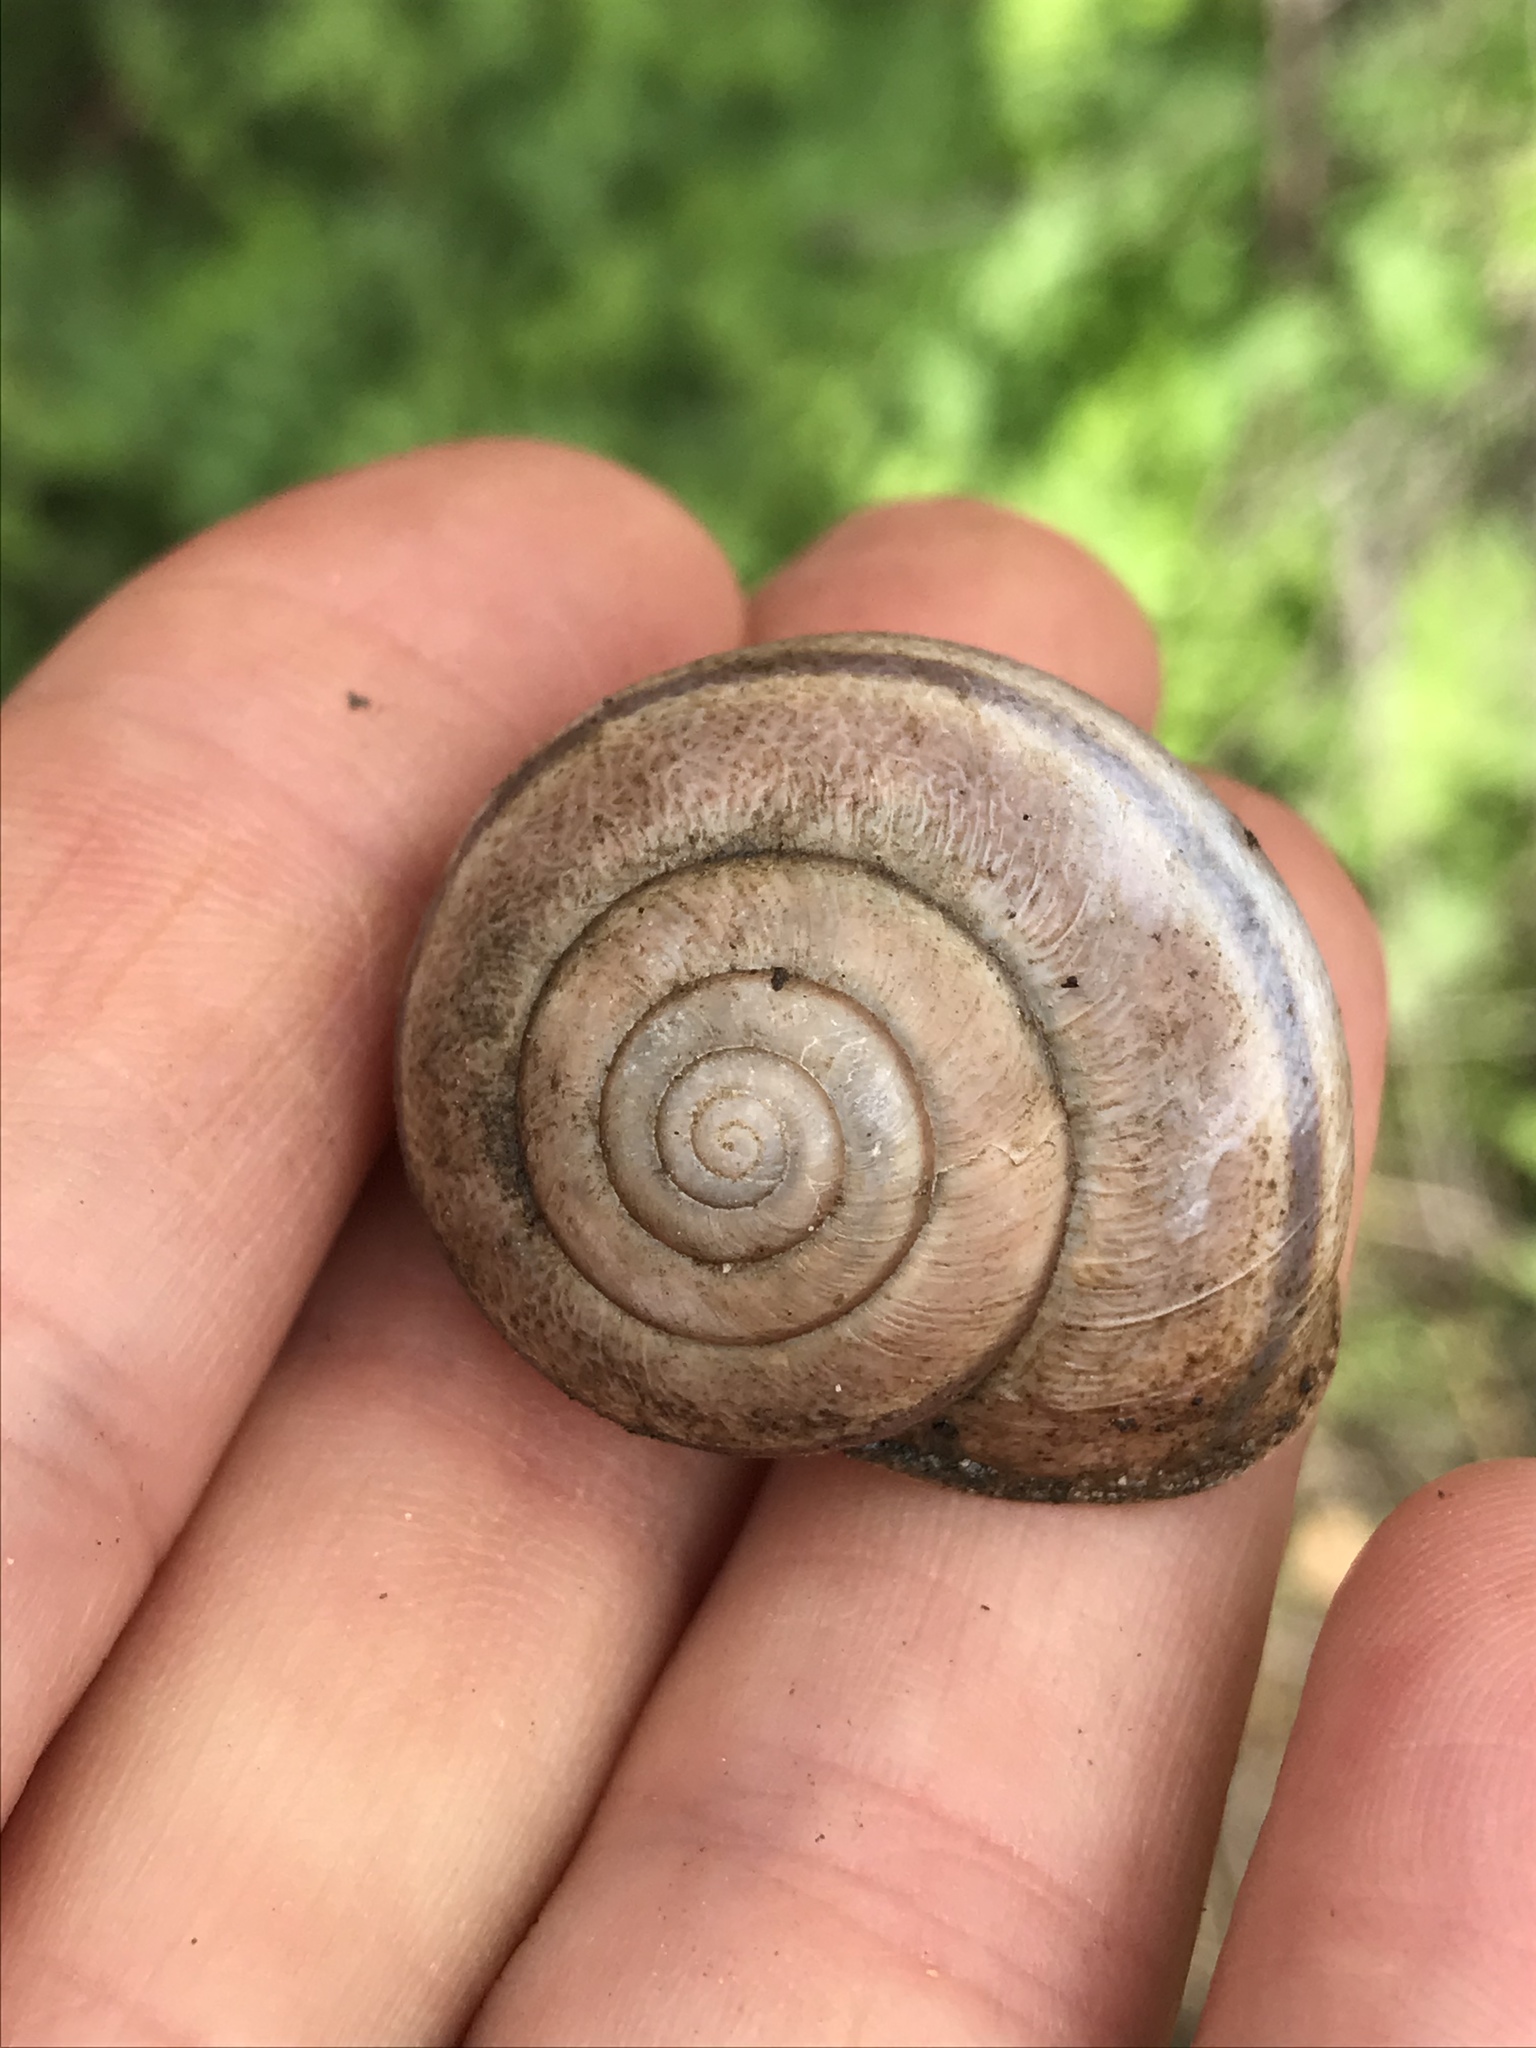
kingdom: Animalia
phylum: Mollusca
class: Gastropoda
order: Stylommatophora
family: Xanthonychidae
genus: Helminthoglypta
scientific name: Helminthoglypta tudiculata
